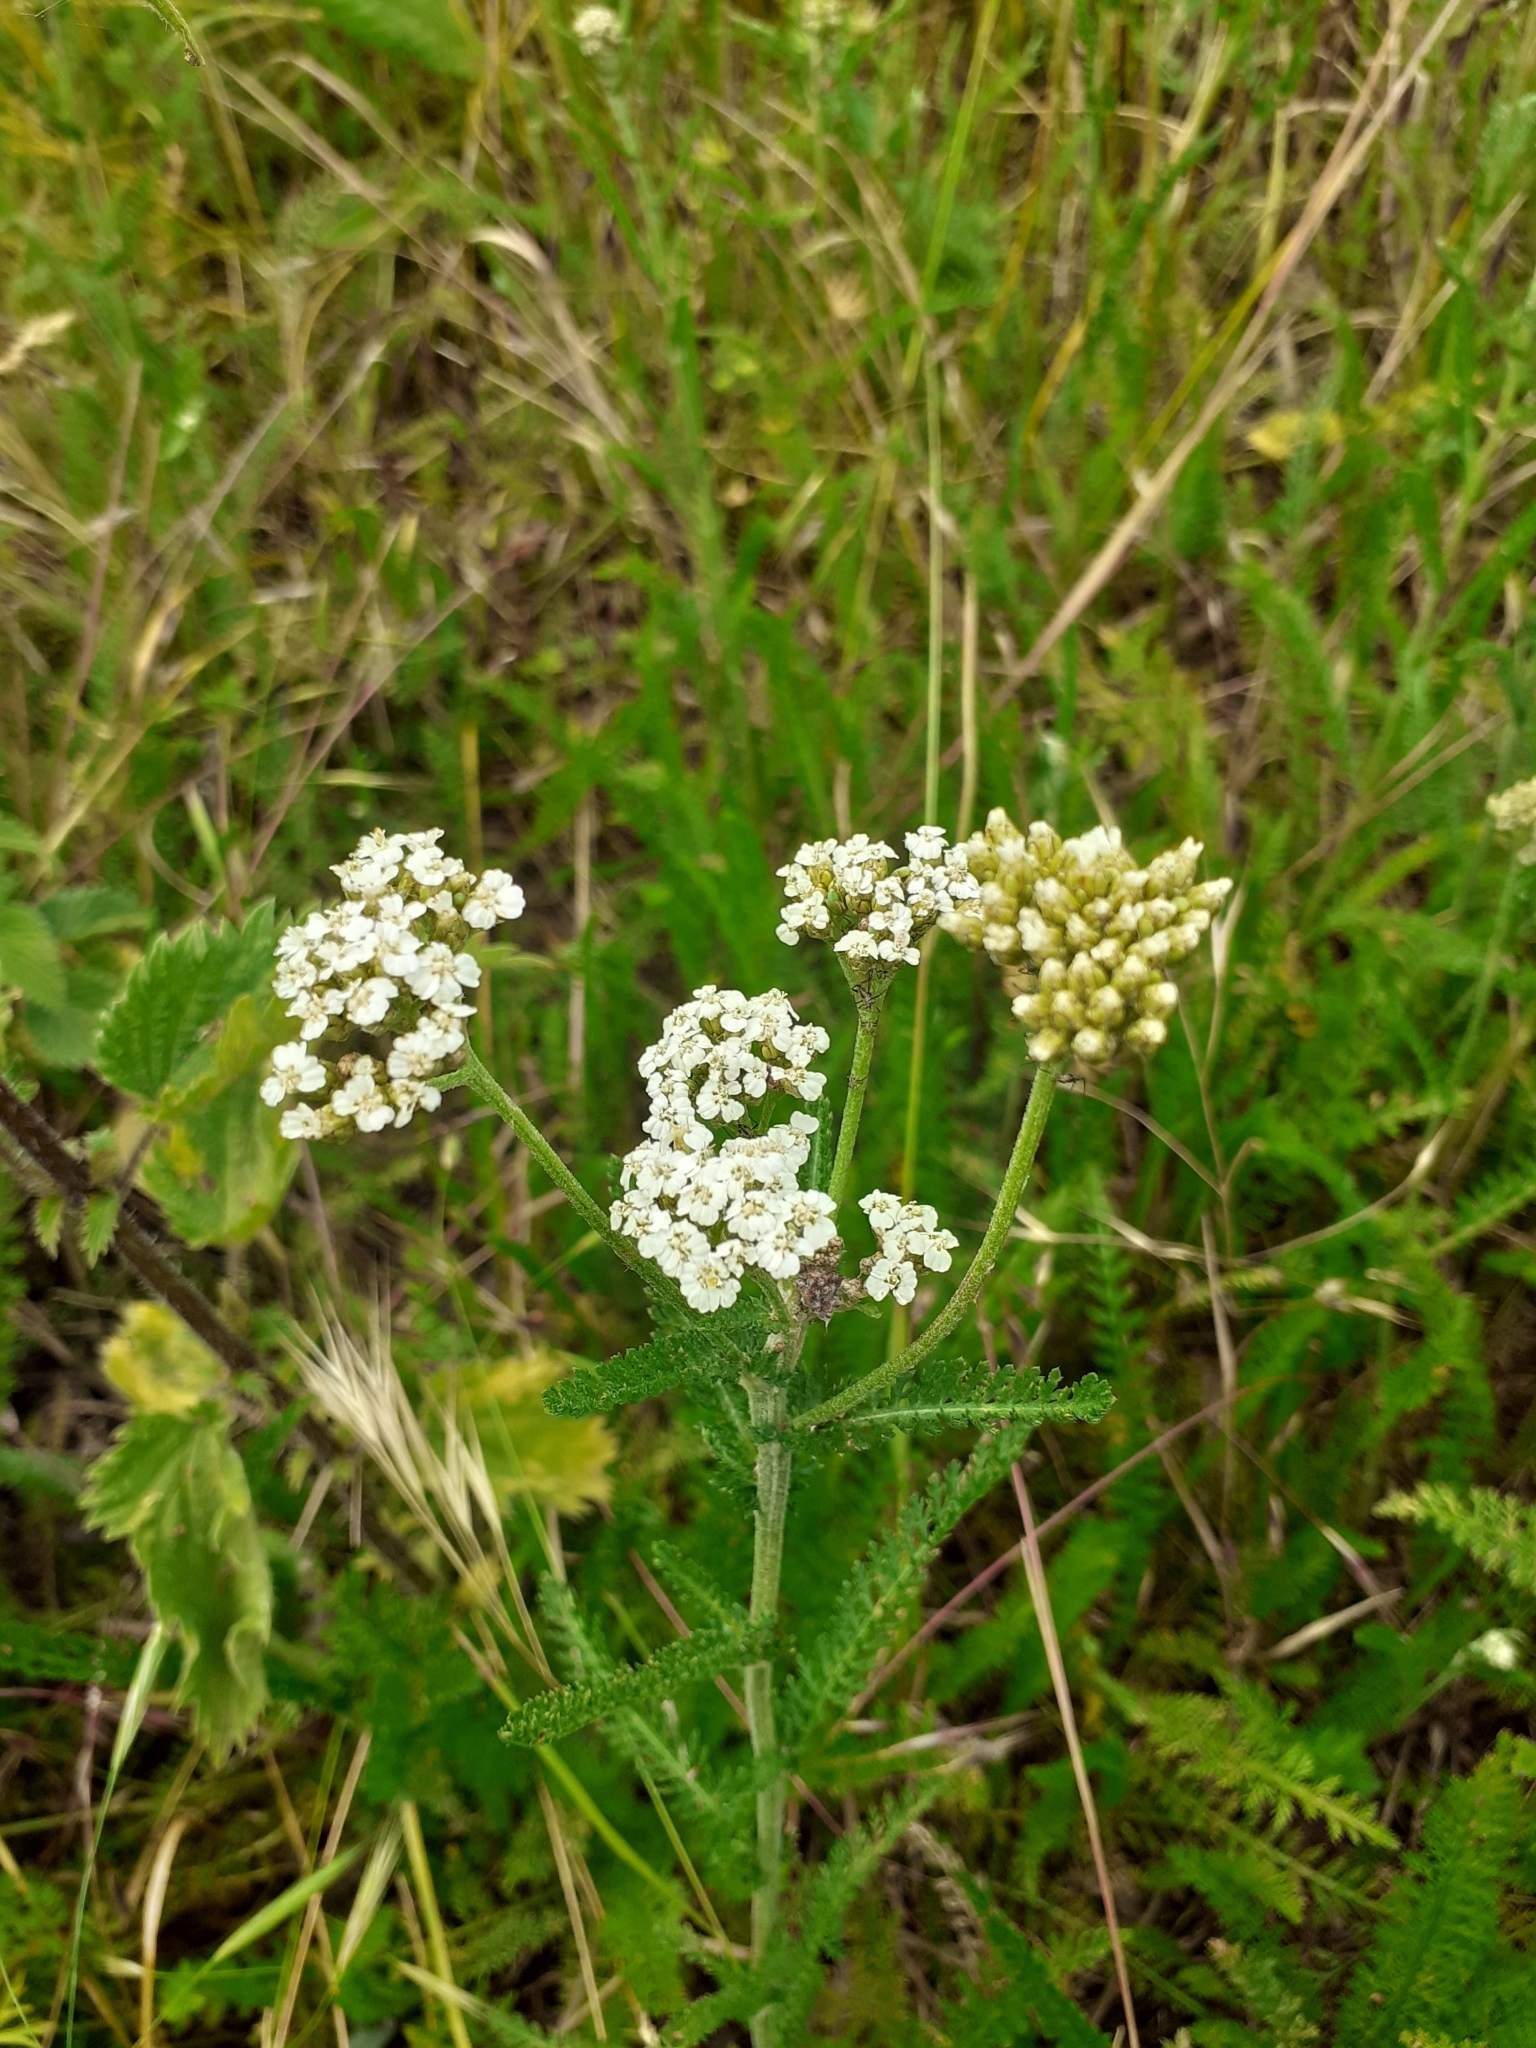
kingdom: Plantae
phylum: Tracheophyta
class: Magnoliopsida
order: Asterales
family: Asteraceae
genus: Achillea
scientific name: Achillea millefolium
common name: Yarrow
